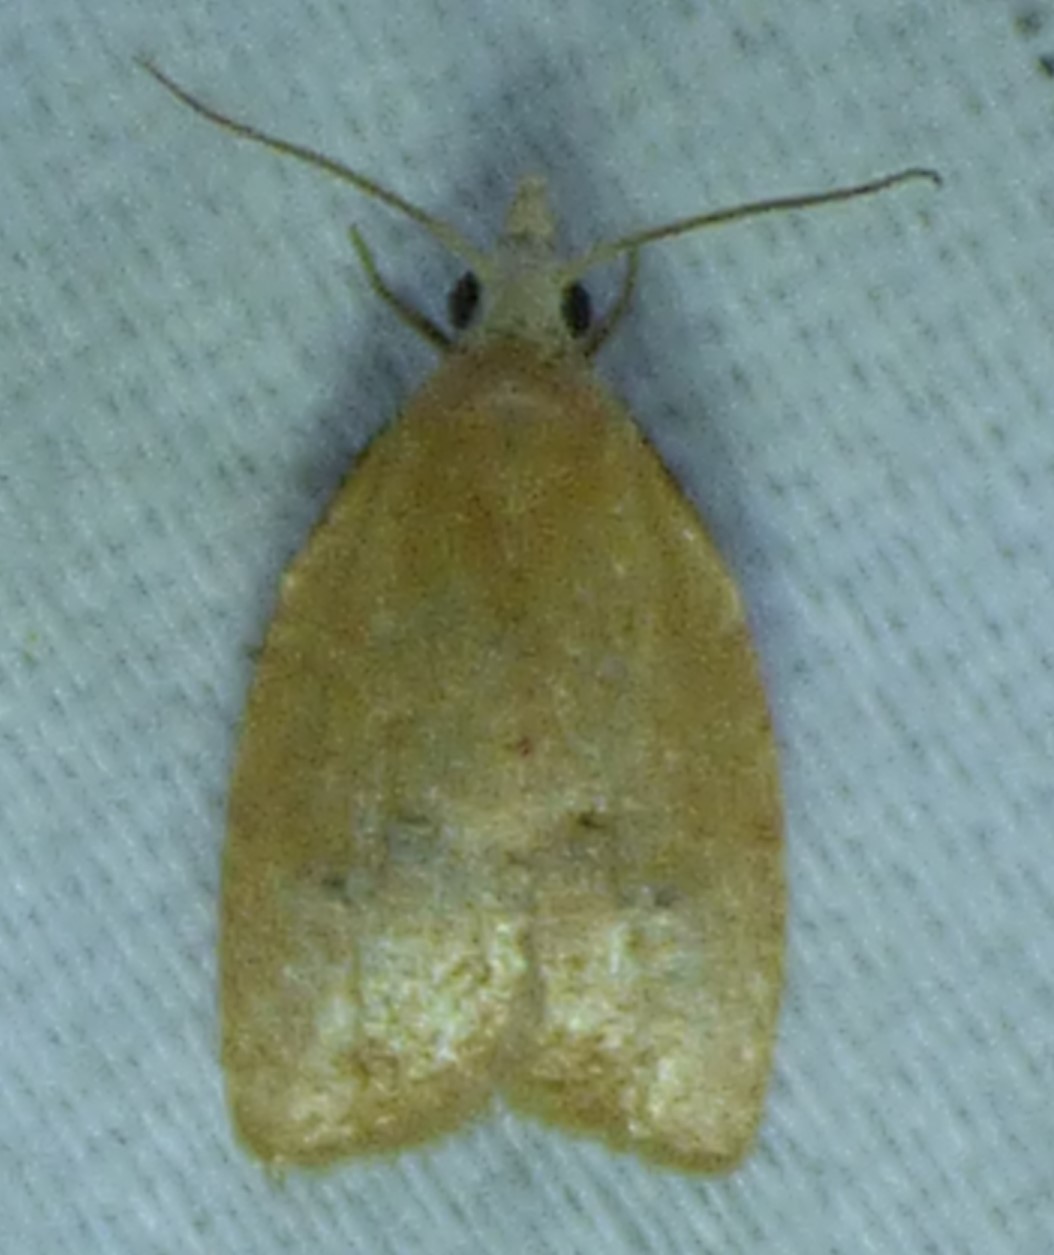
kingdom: Animalia
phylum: Arthropoda
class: Insecta
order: Lepidoptera
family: Tortricidae
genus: Coelostathma
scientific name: Coelostathma discopunctana
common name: Batman moth
